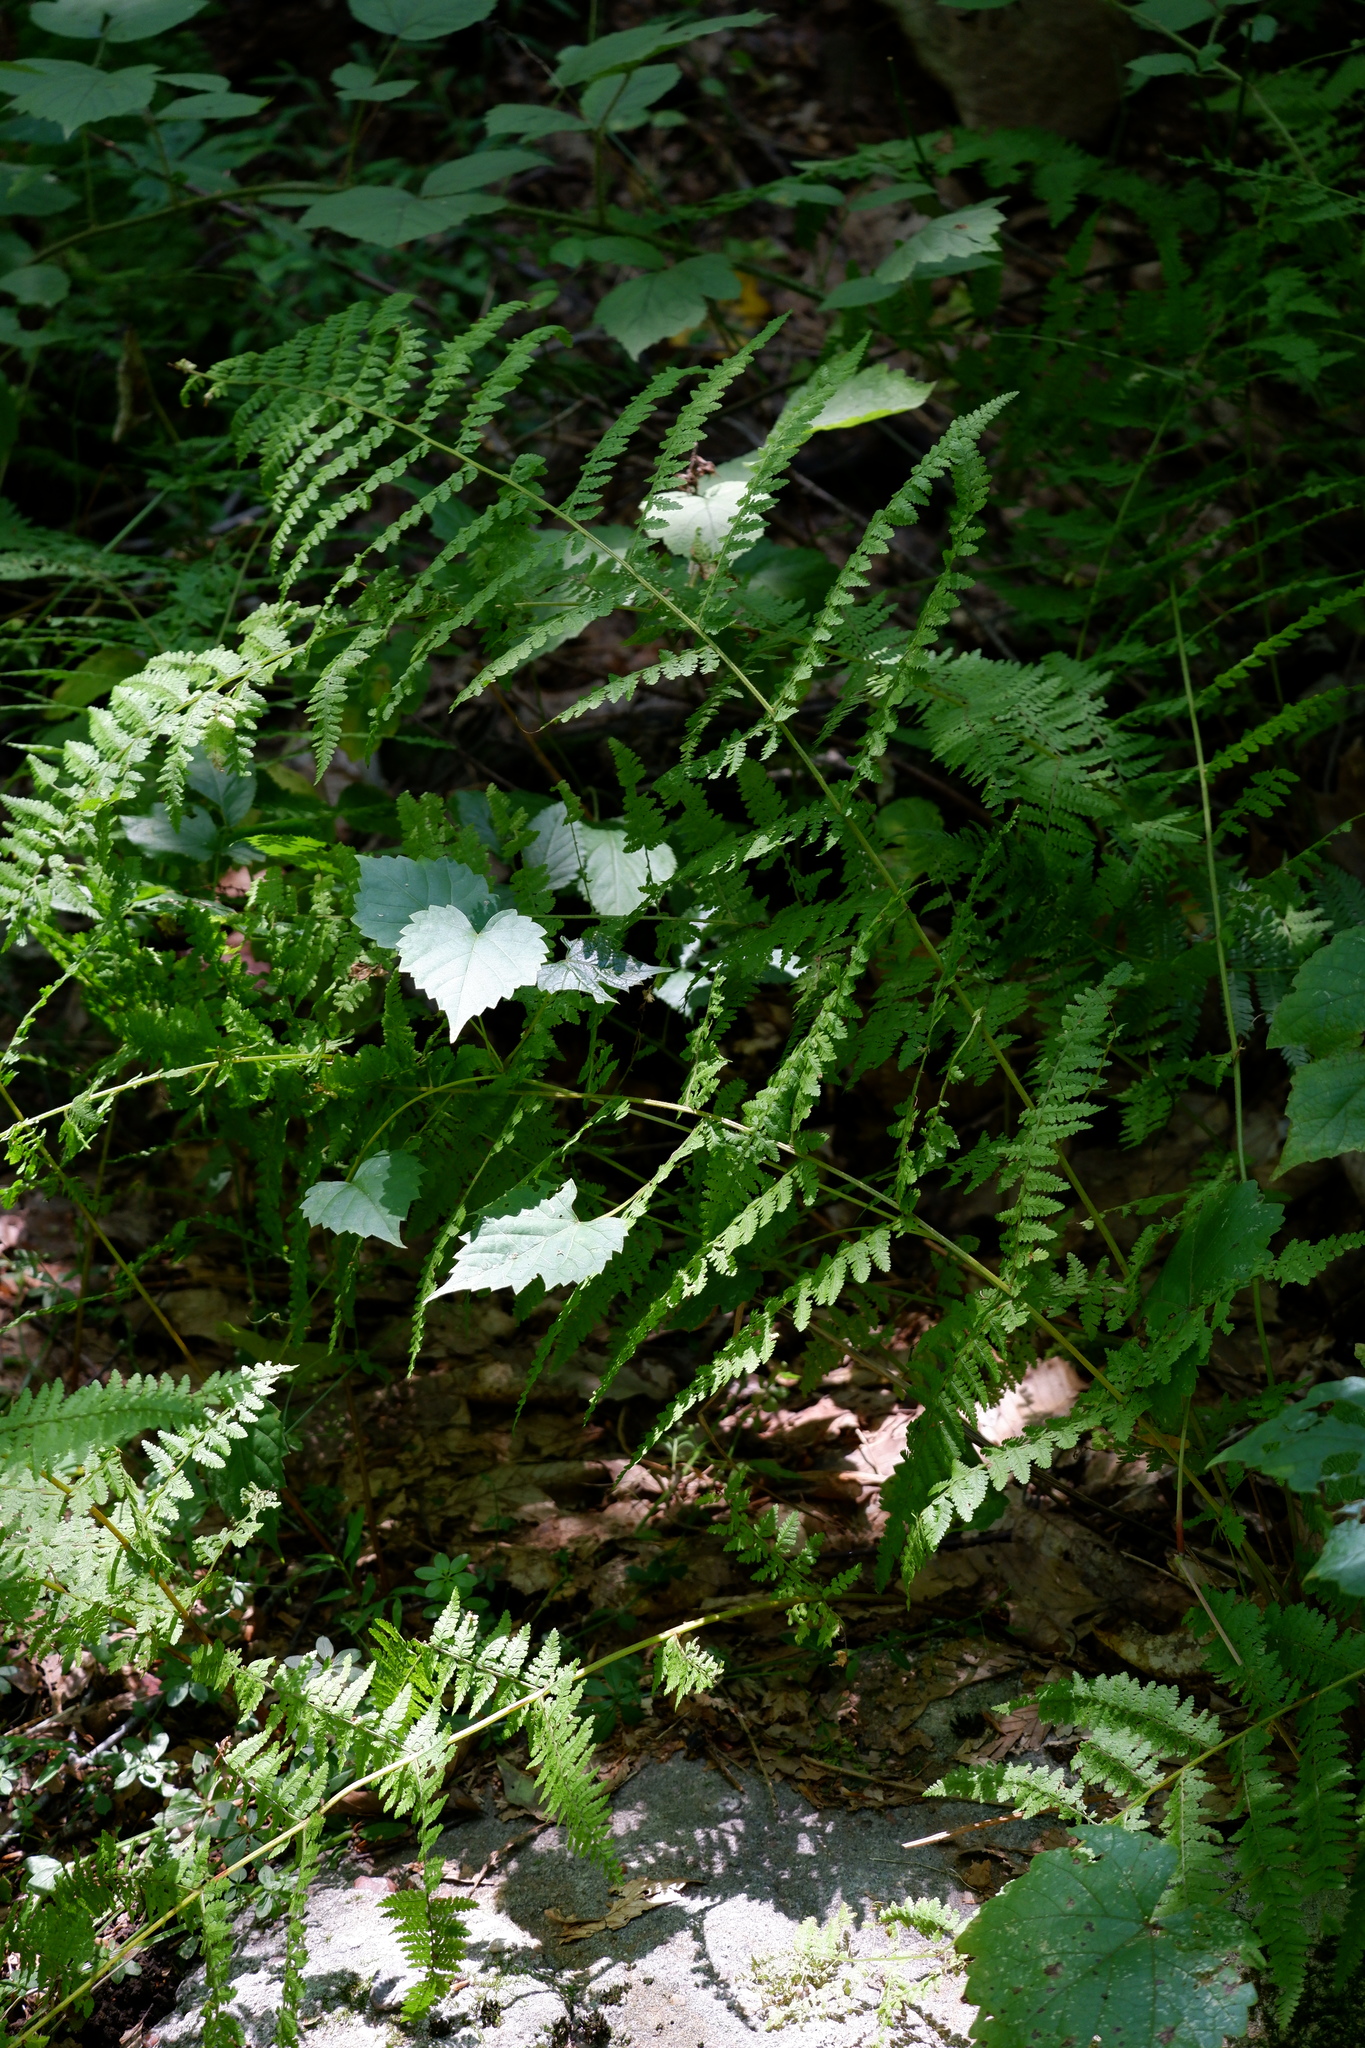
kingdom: Plantae
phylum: Tracheophyta
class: Polypodiopsida
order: Polypodiales
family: Dennstaedtiaceae
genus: Sitobolium
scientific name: Sitobolium punctilobum
